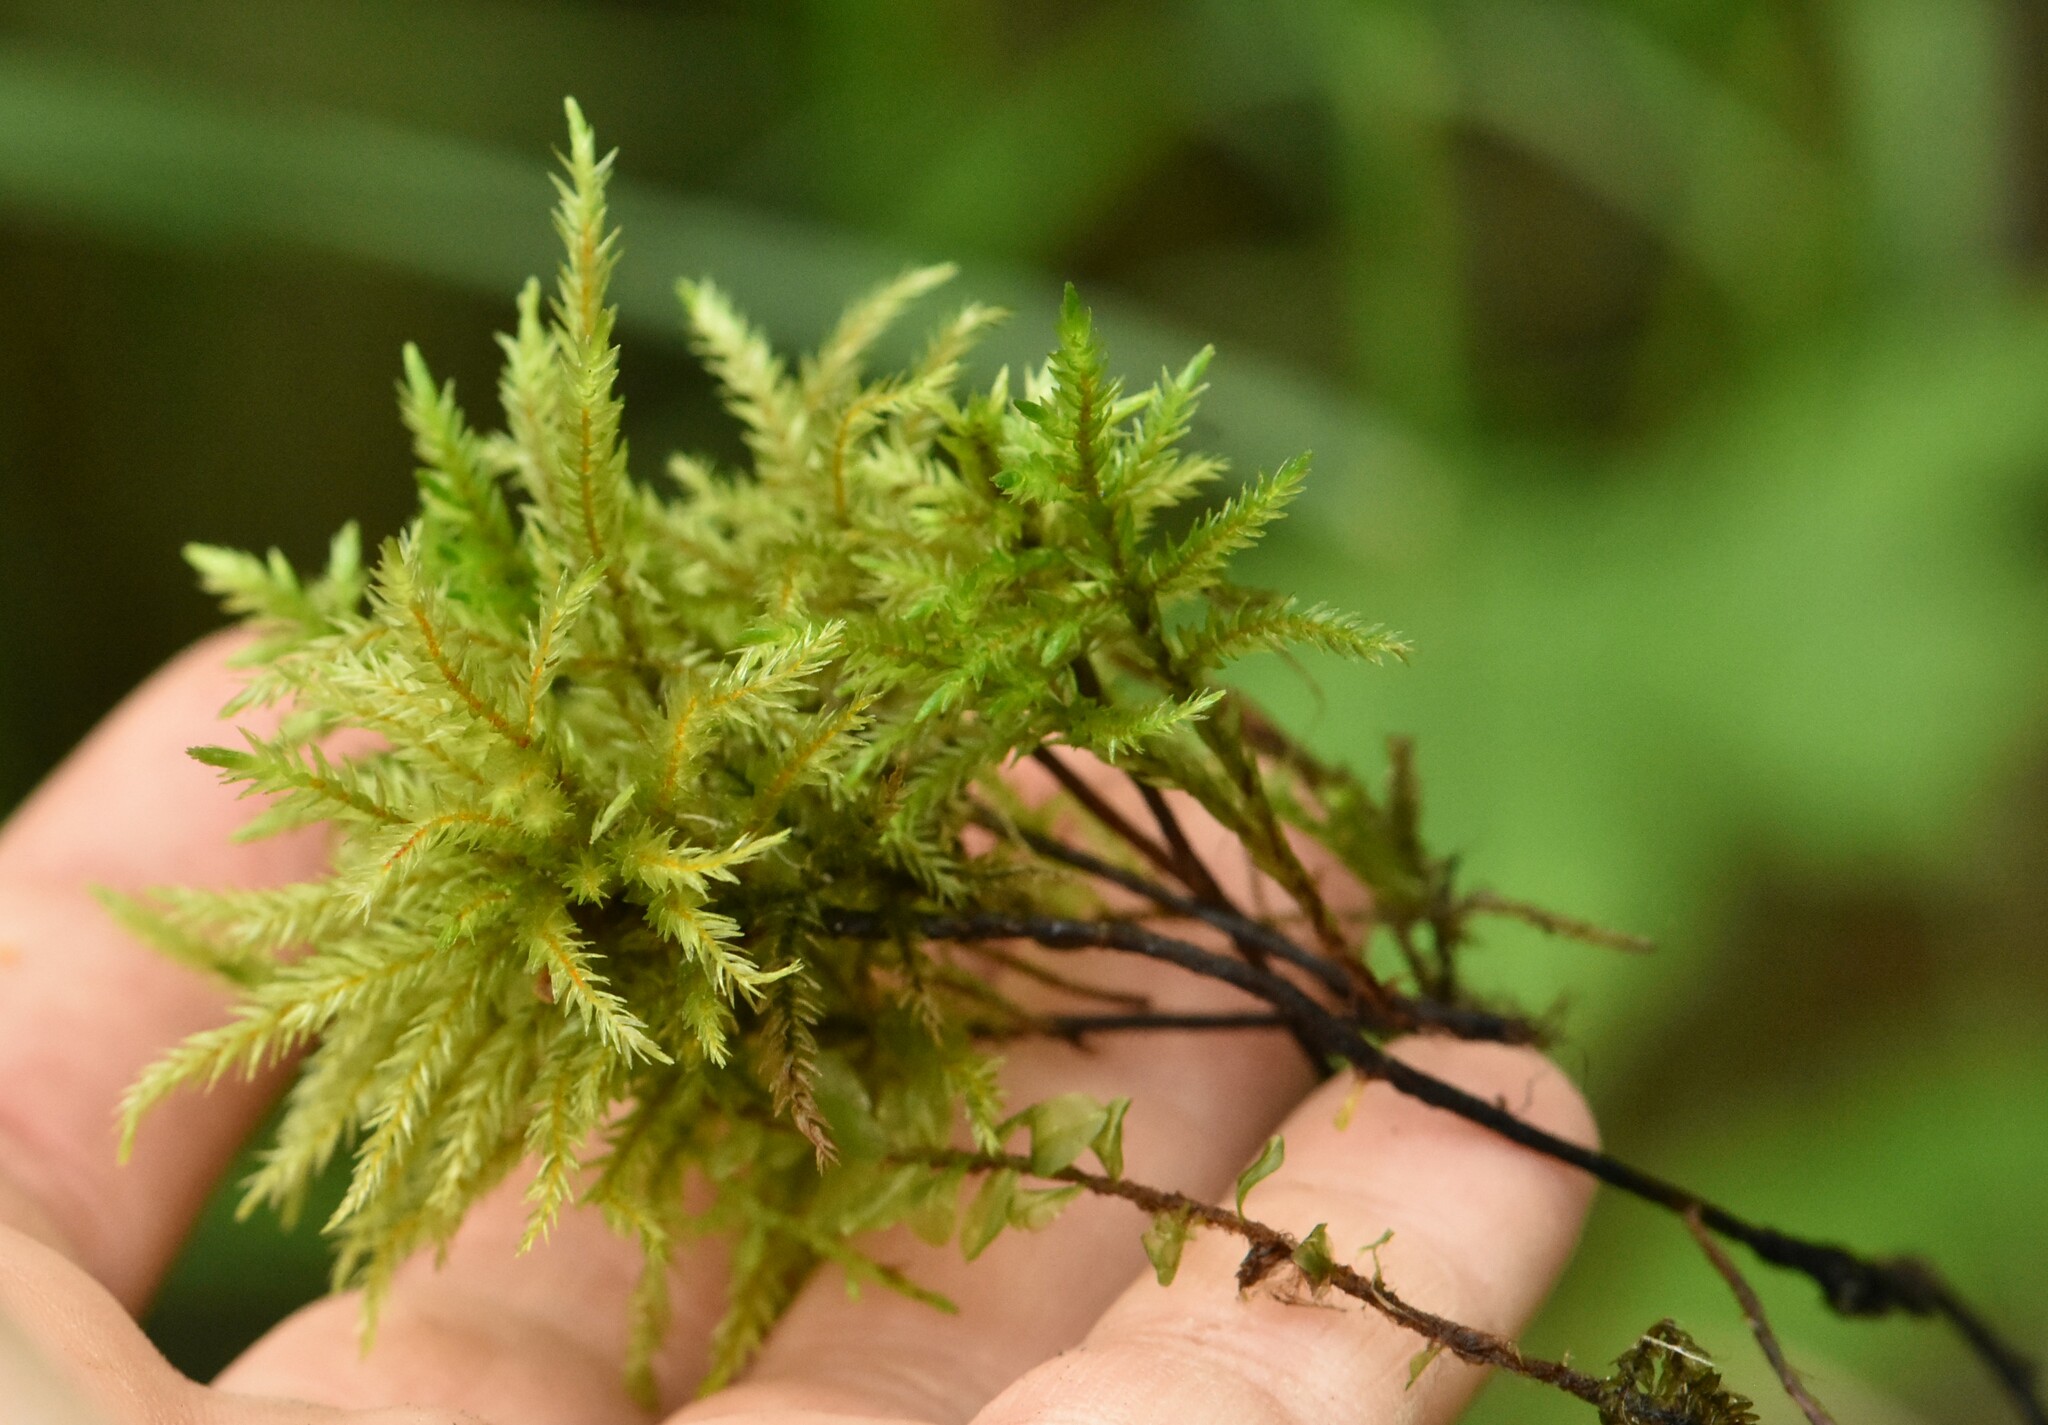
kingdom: Plantae
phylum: Bryophyta
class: Bryopsida
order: Hypnales
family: Climaciaceae
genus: Climacium
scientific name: Climacium dendroides
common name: Northern tree moss
